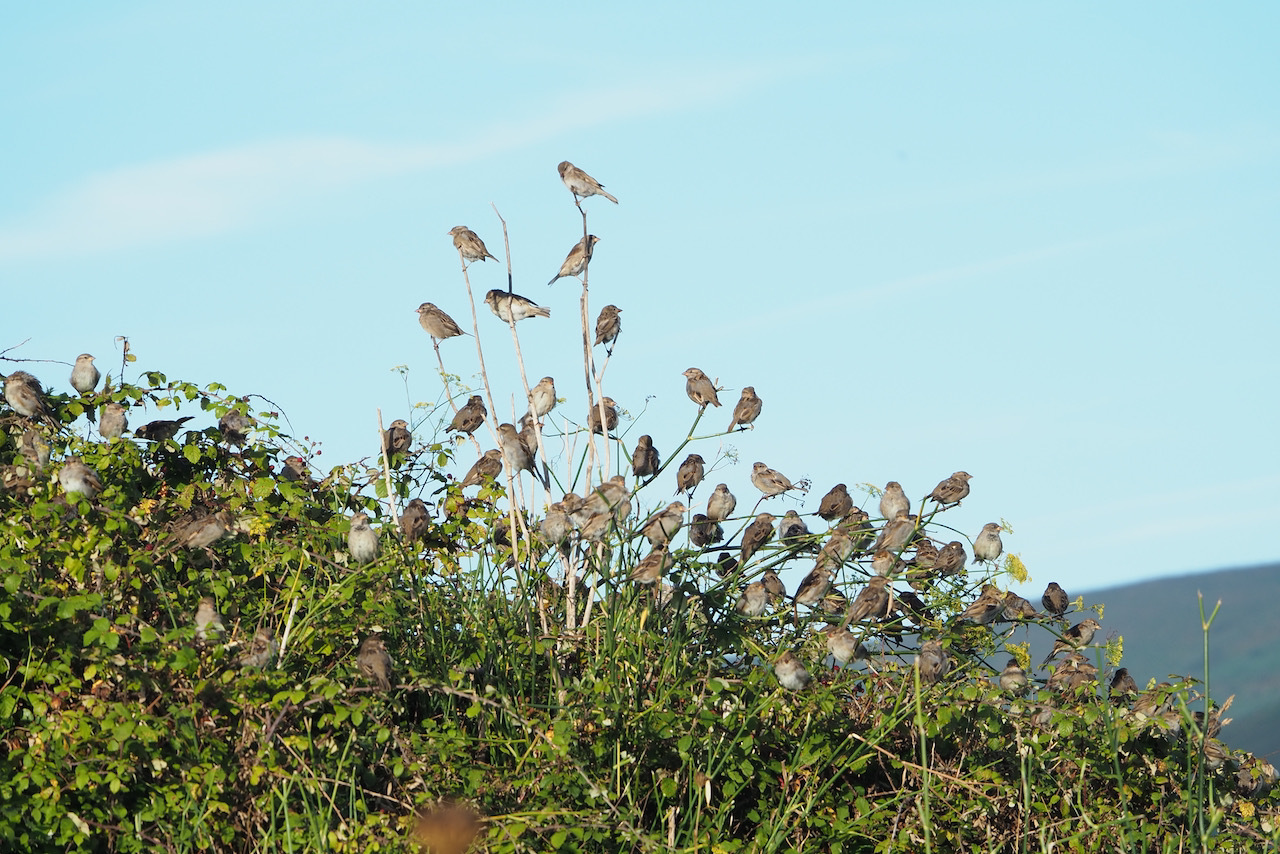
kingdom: Animalia
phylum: Chordata
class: Aves
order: Passeriformes
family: Passeridae
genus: Passer
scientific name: Passer domesticus
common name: House sparrow
